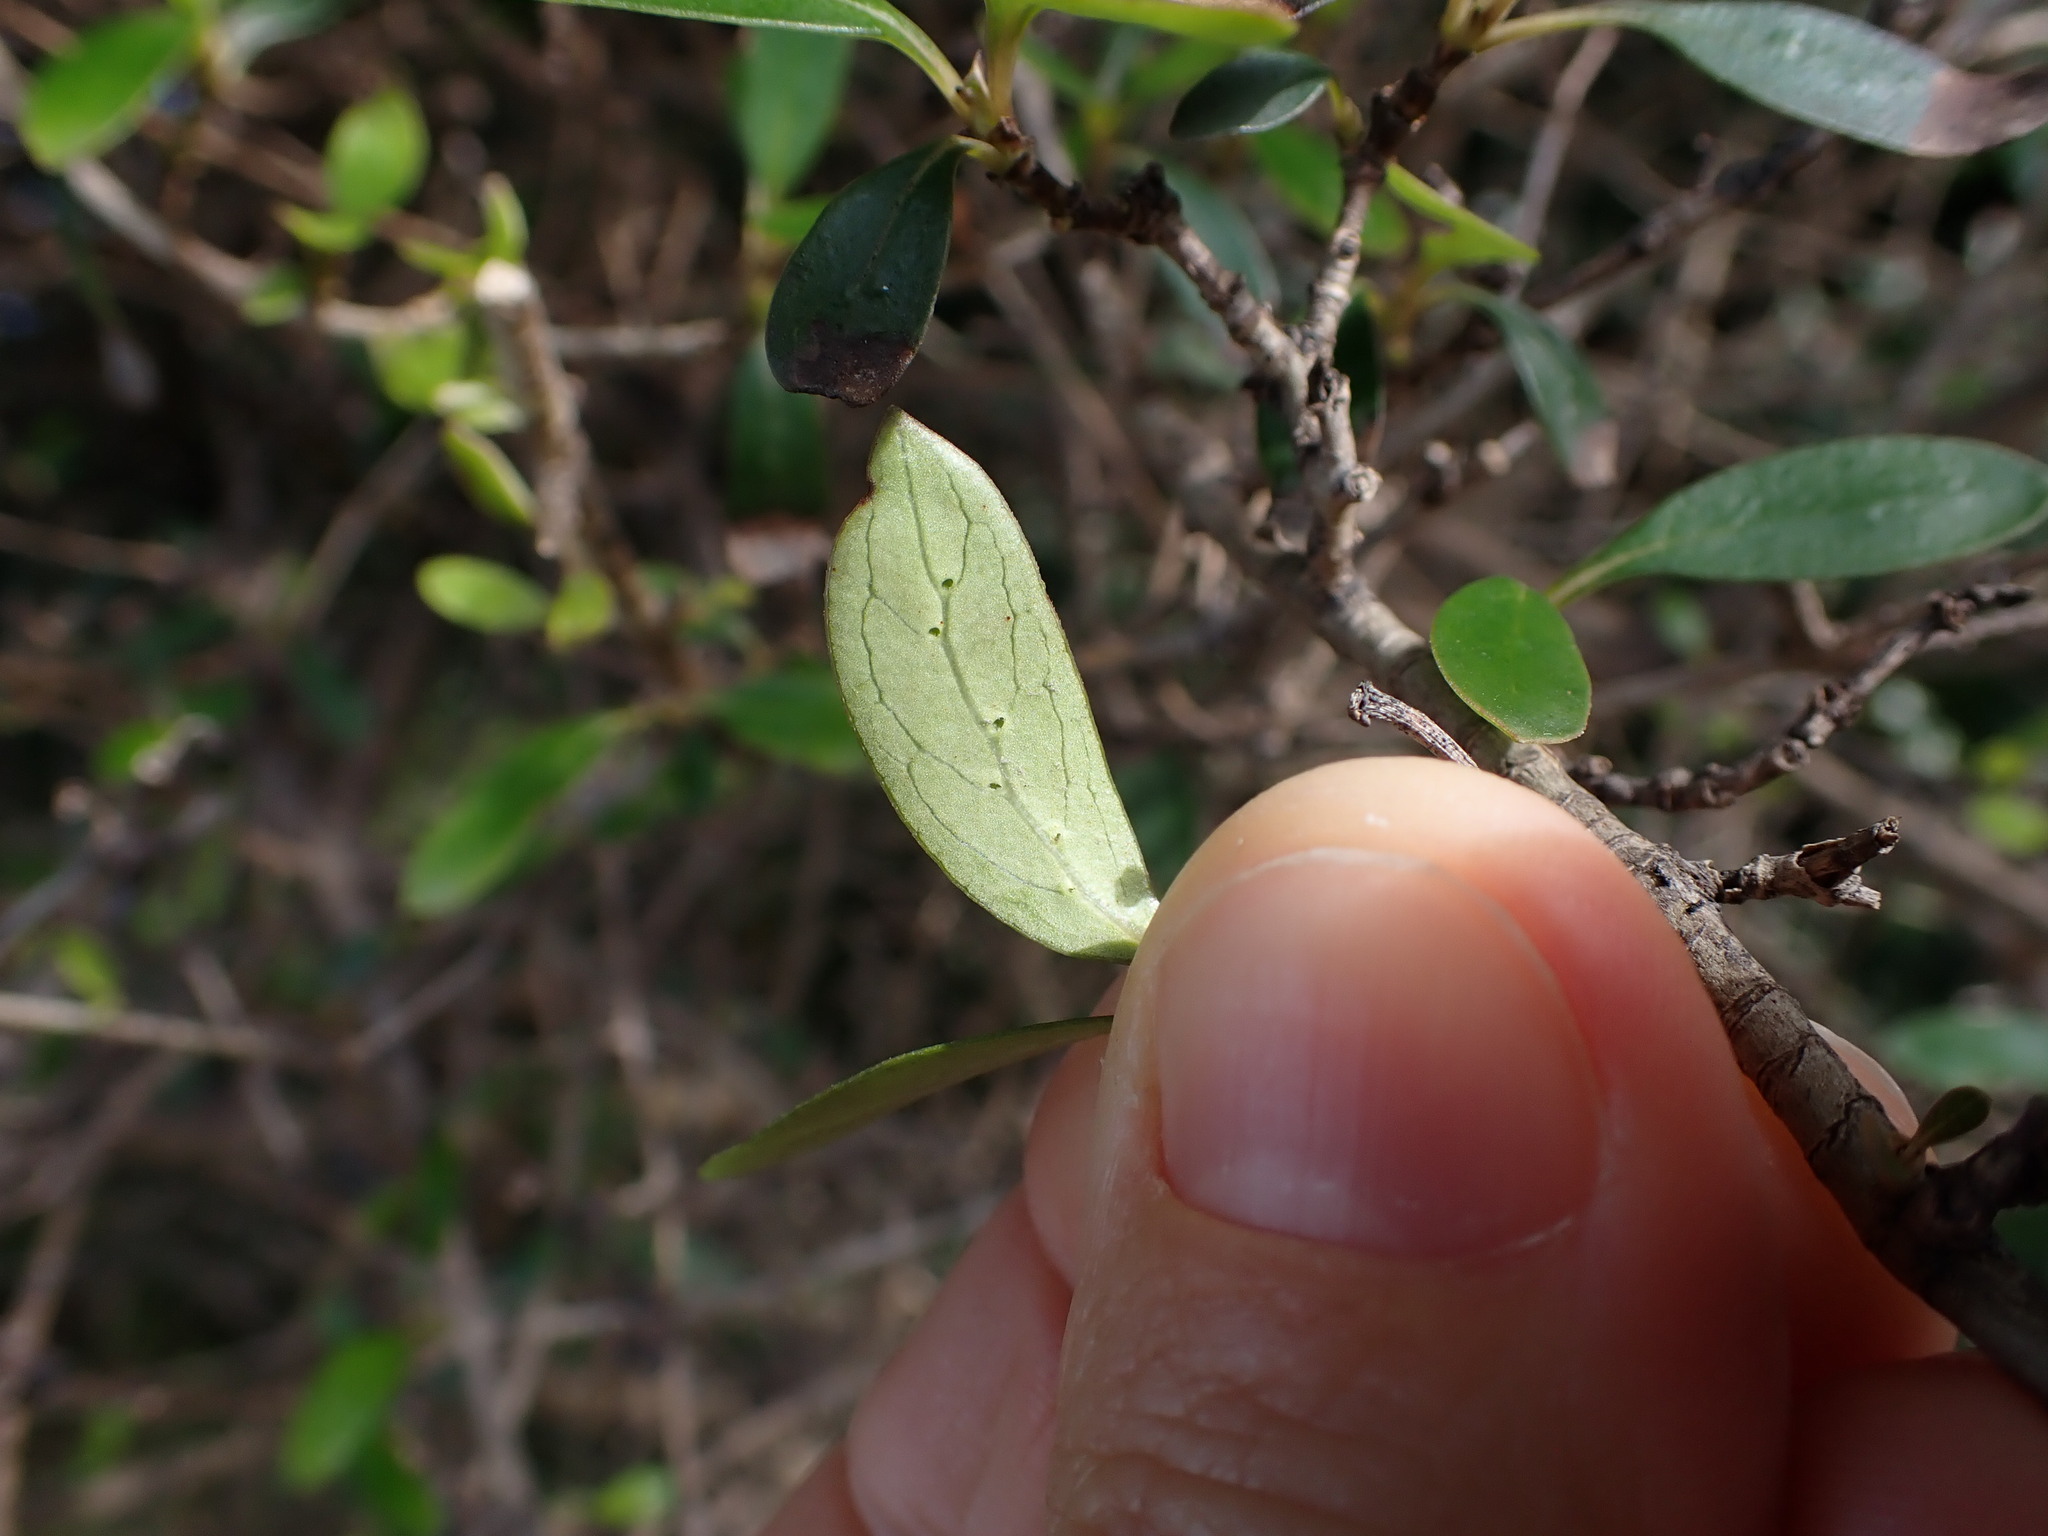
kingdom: Plantae
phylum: Tracheophyta
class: Magnoliopsida
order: Gentianales
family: Rubiaceae
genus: Coprosma
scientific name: Coprosma cunninghamii
